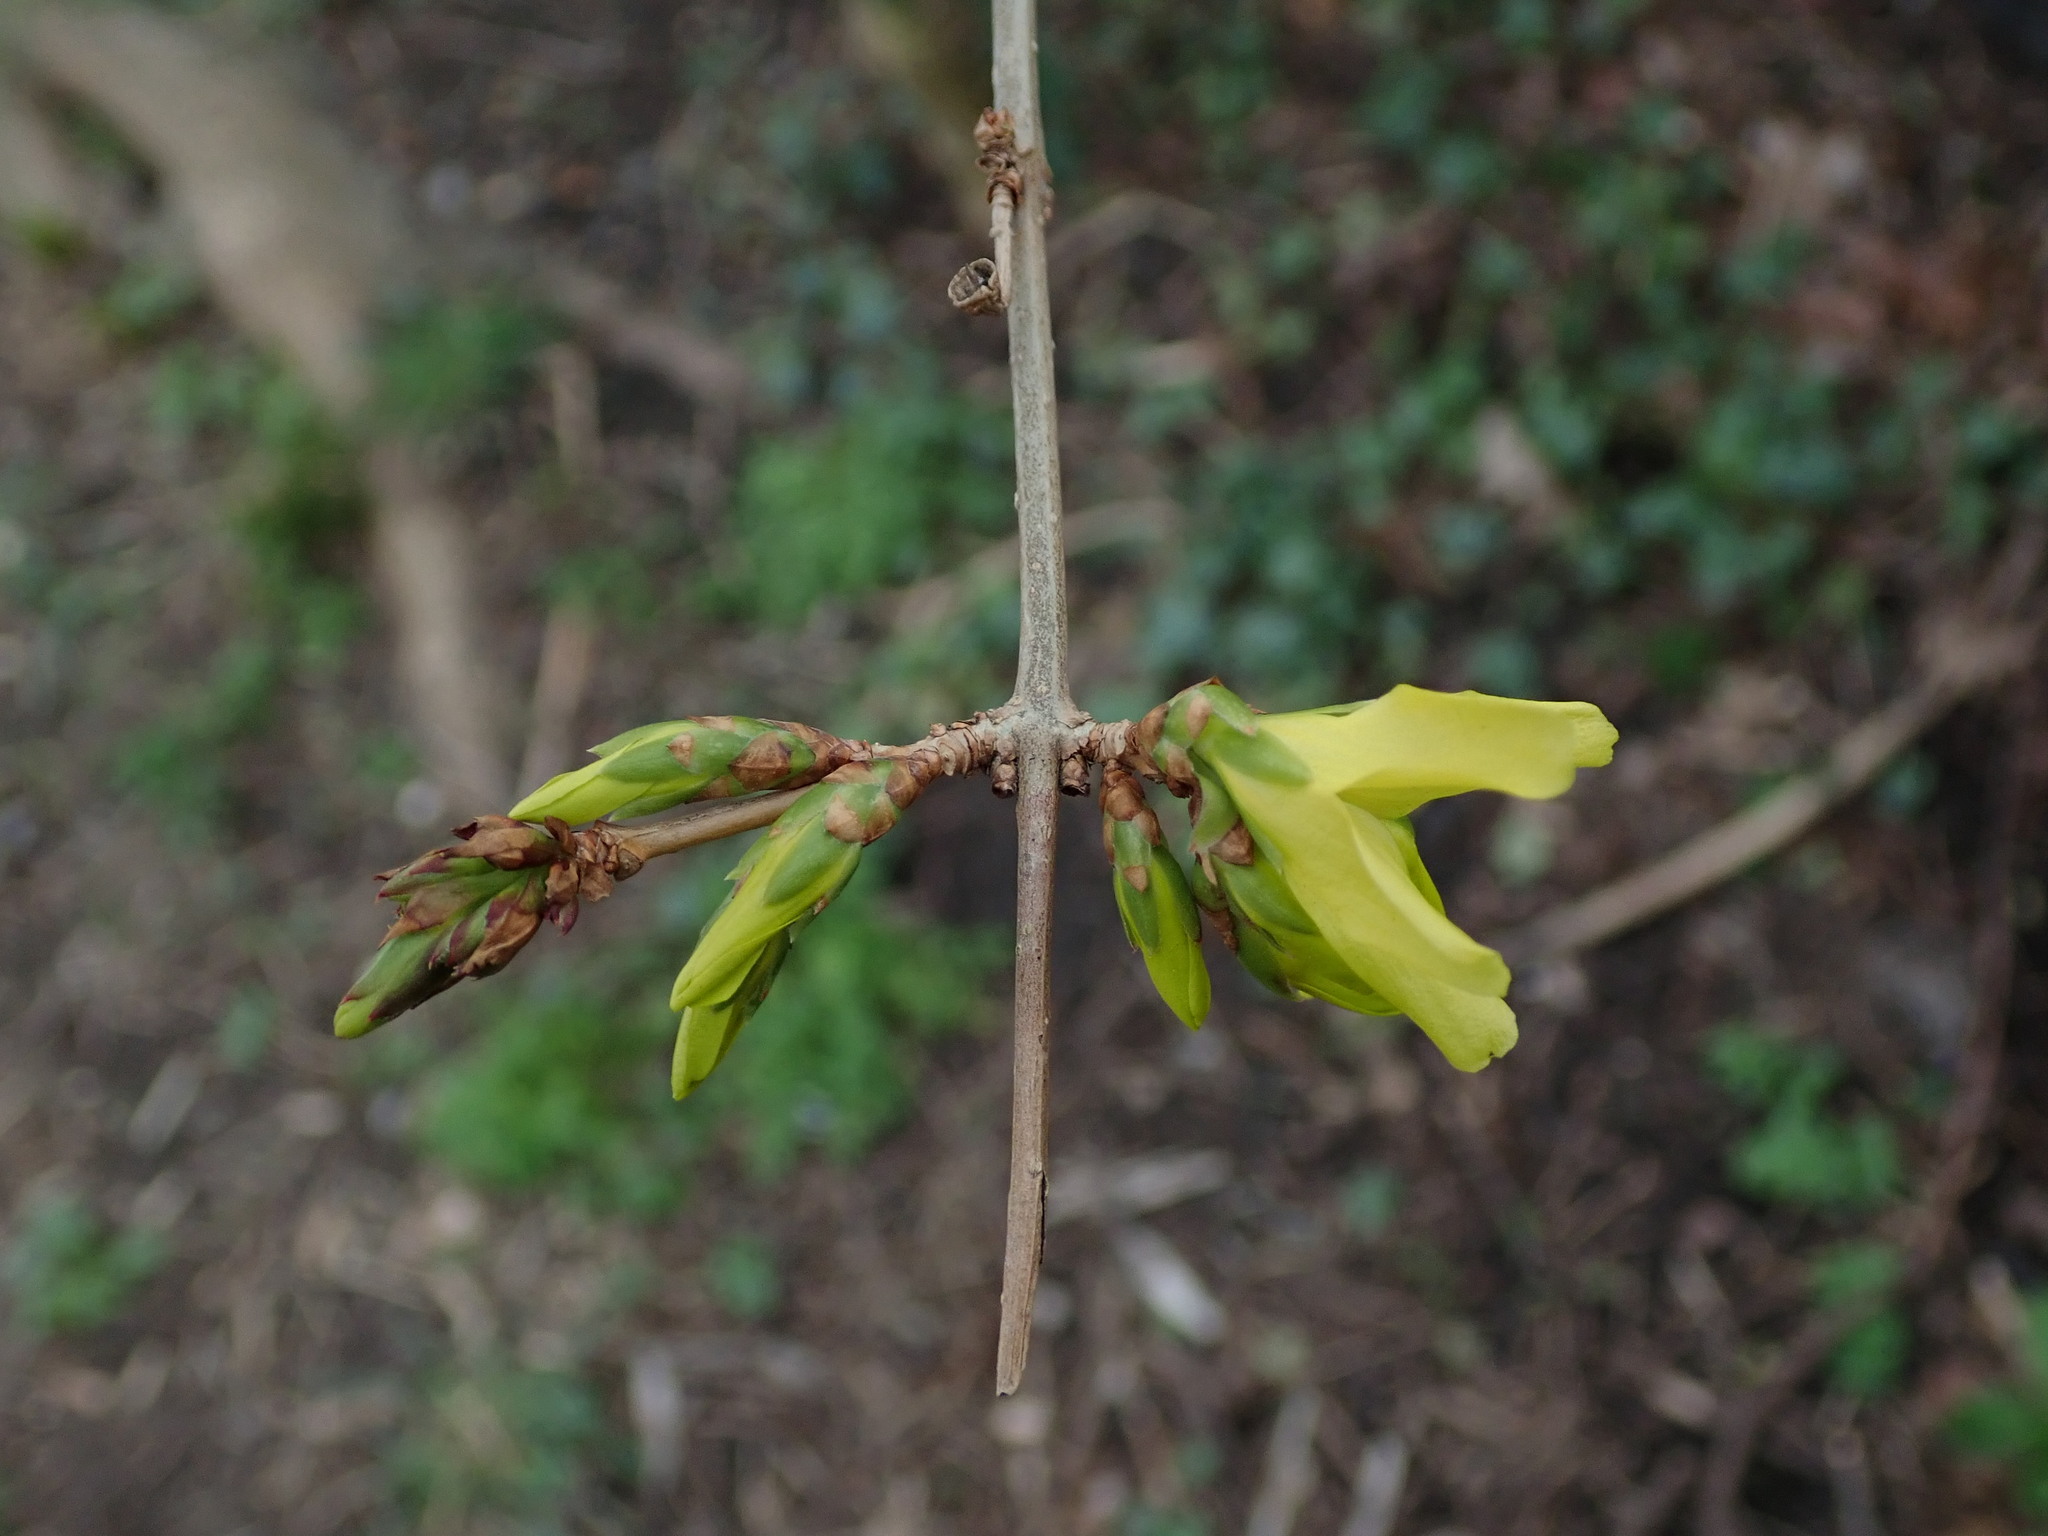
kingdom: Plantae
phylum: Tracheophyta
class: Magnoliopsida
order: Lamiales
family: Oleaceae
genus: Forsythia
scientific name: Forsythia intermedia
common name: Forsythia
